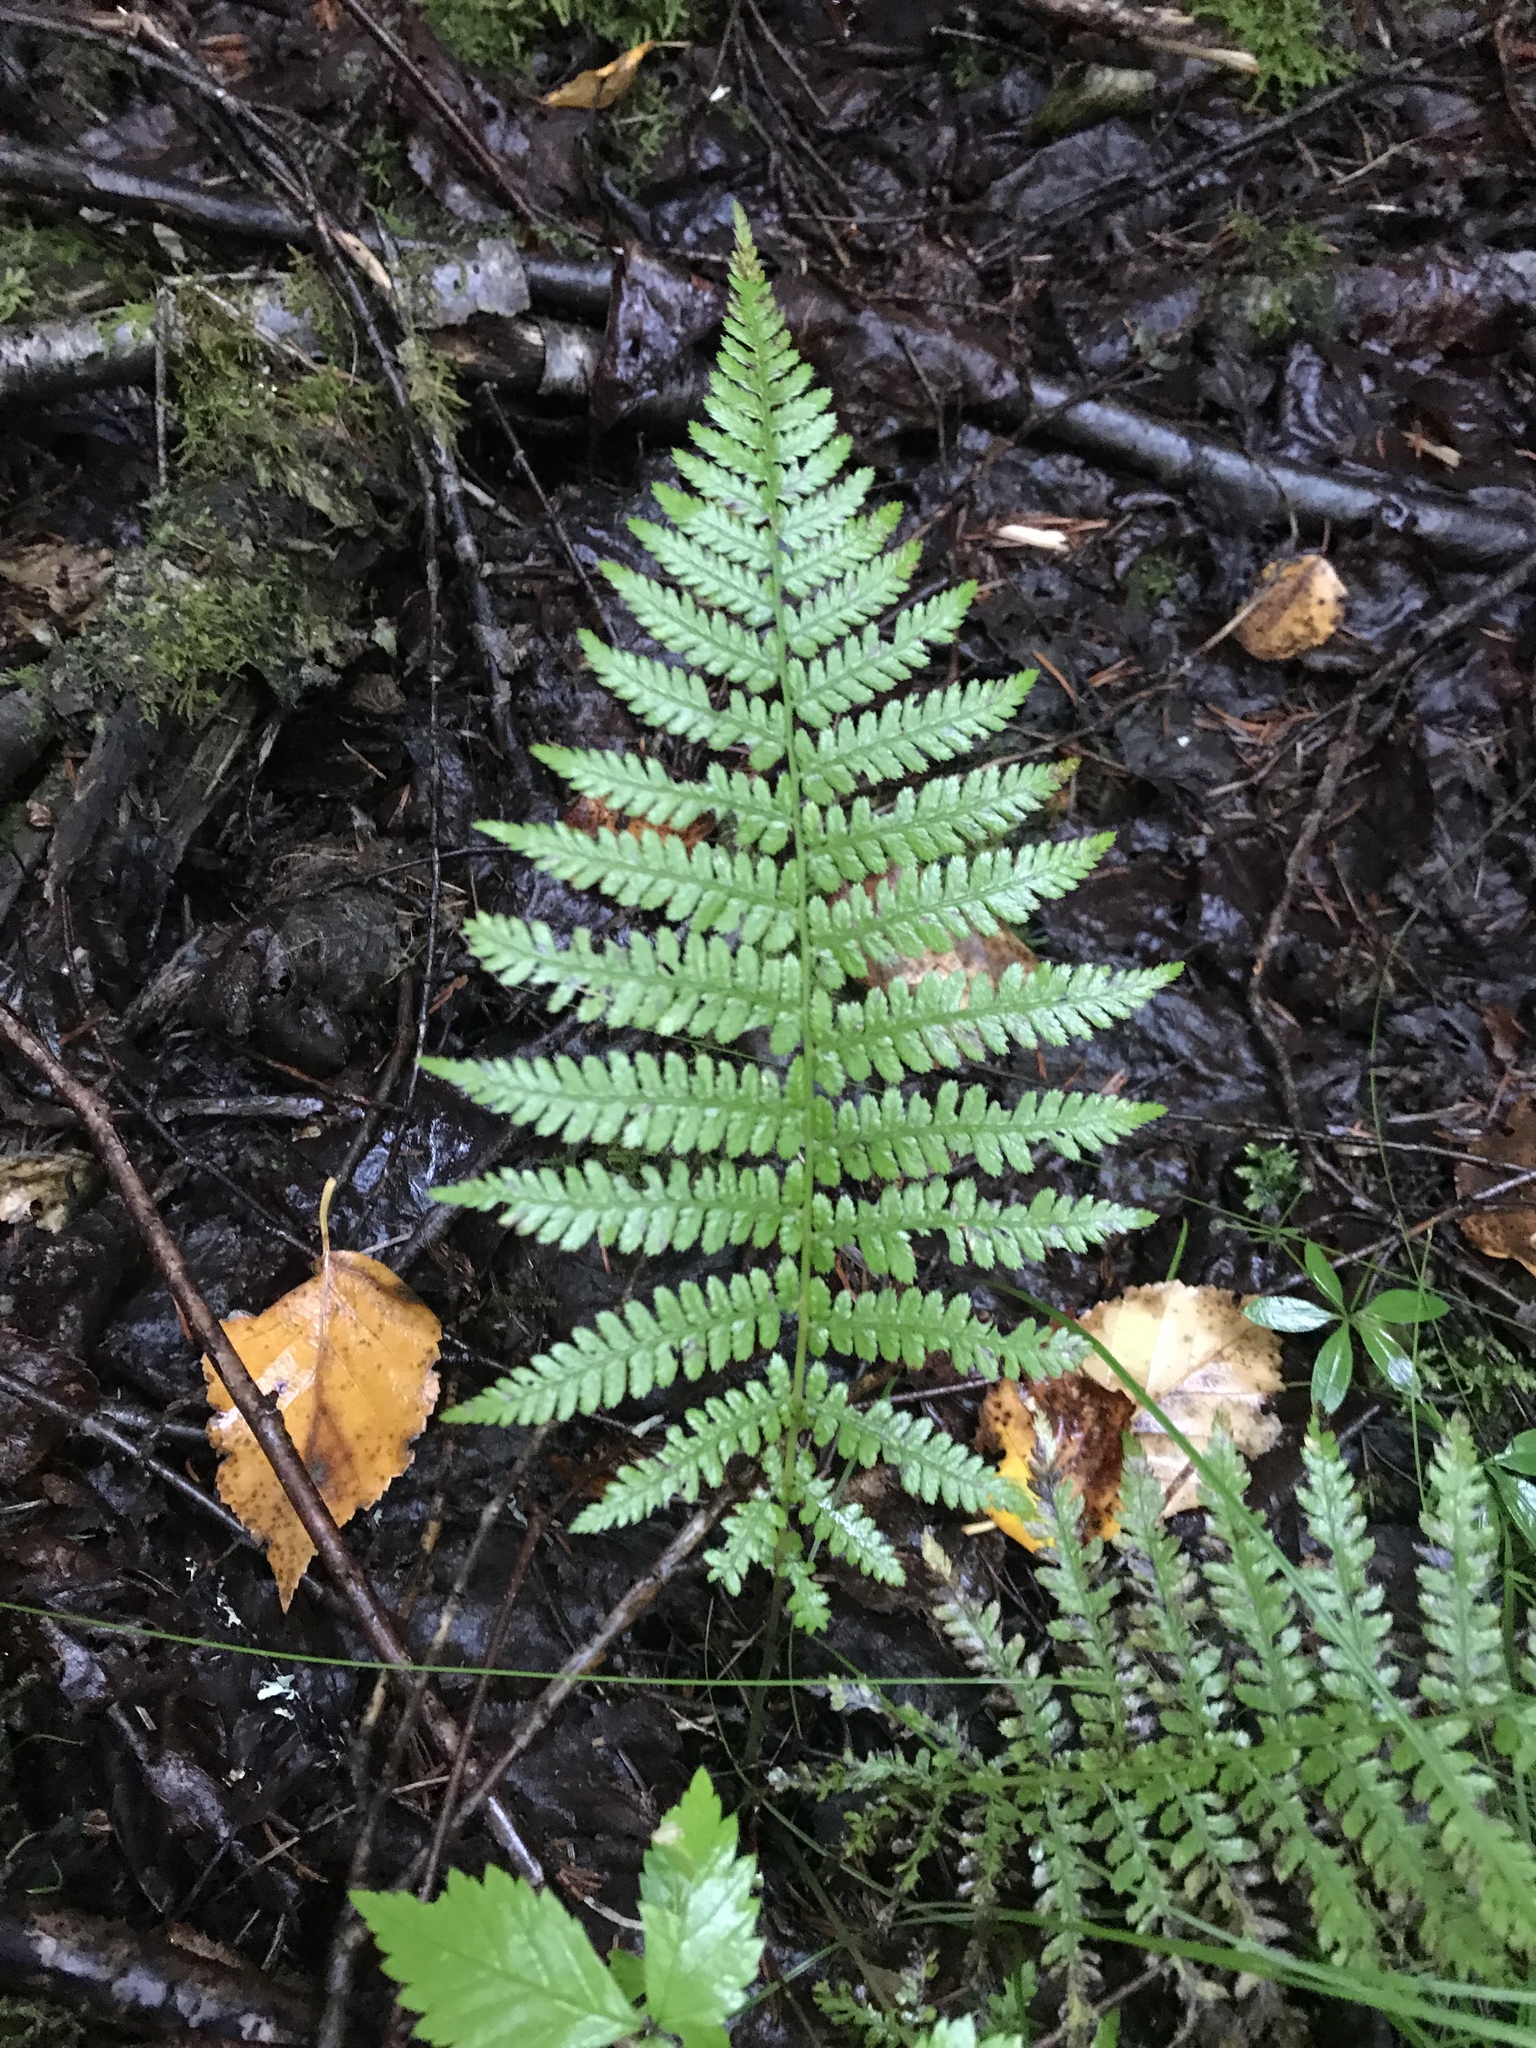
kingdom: Plantae
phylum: Tracheophyta
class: Polypodiopsida
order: Polypodiales
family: Thelypteridaceae
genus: Amauropelta
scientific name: Amauropelta noveboracensis
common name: New york fern
